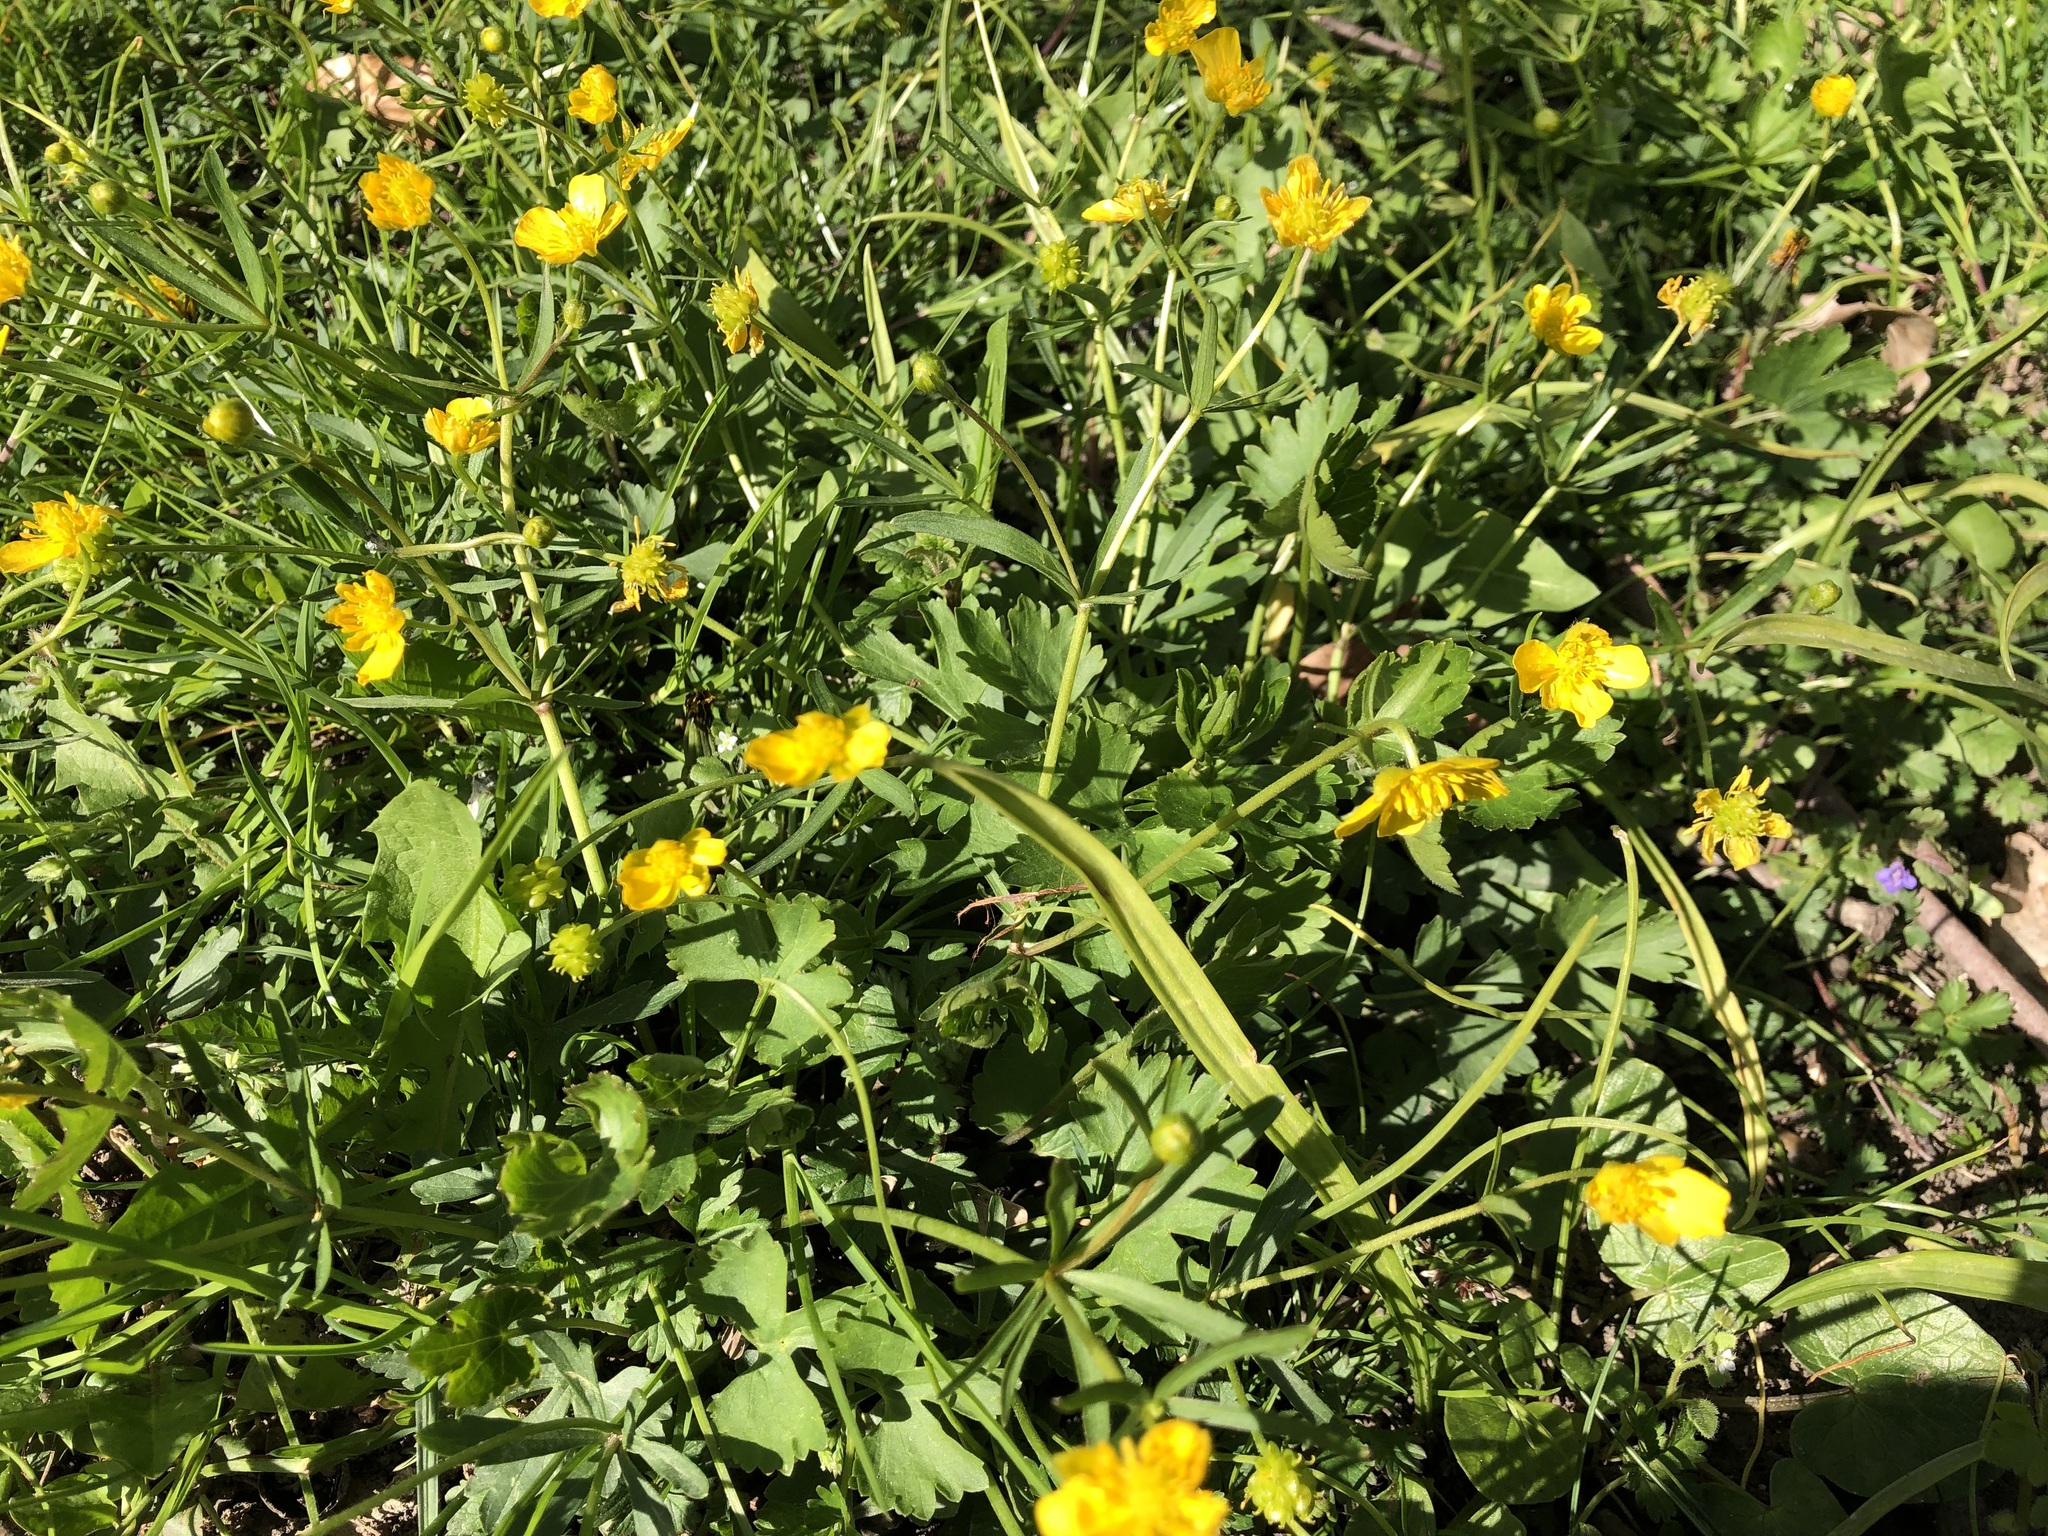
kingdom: Plantae
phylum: Tracheophyta
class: Magnoliopsida
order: Ranunculales
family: Ranunculaceae
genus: Ranunculus
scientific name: Ranunculus auricomus
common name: Goldilocks buttercup
